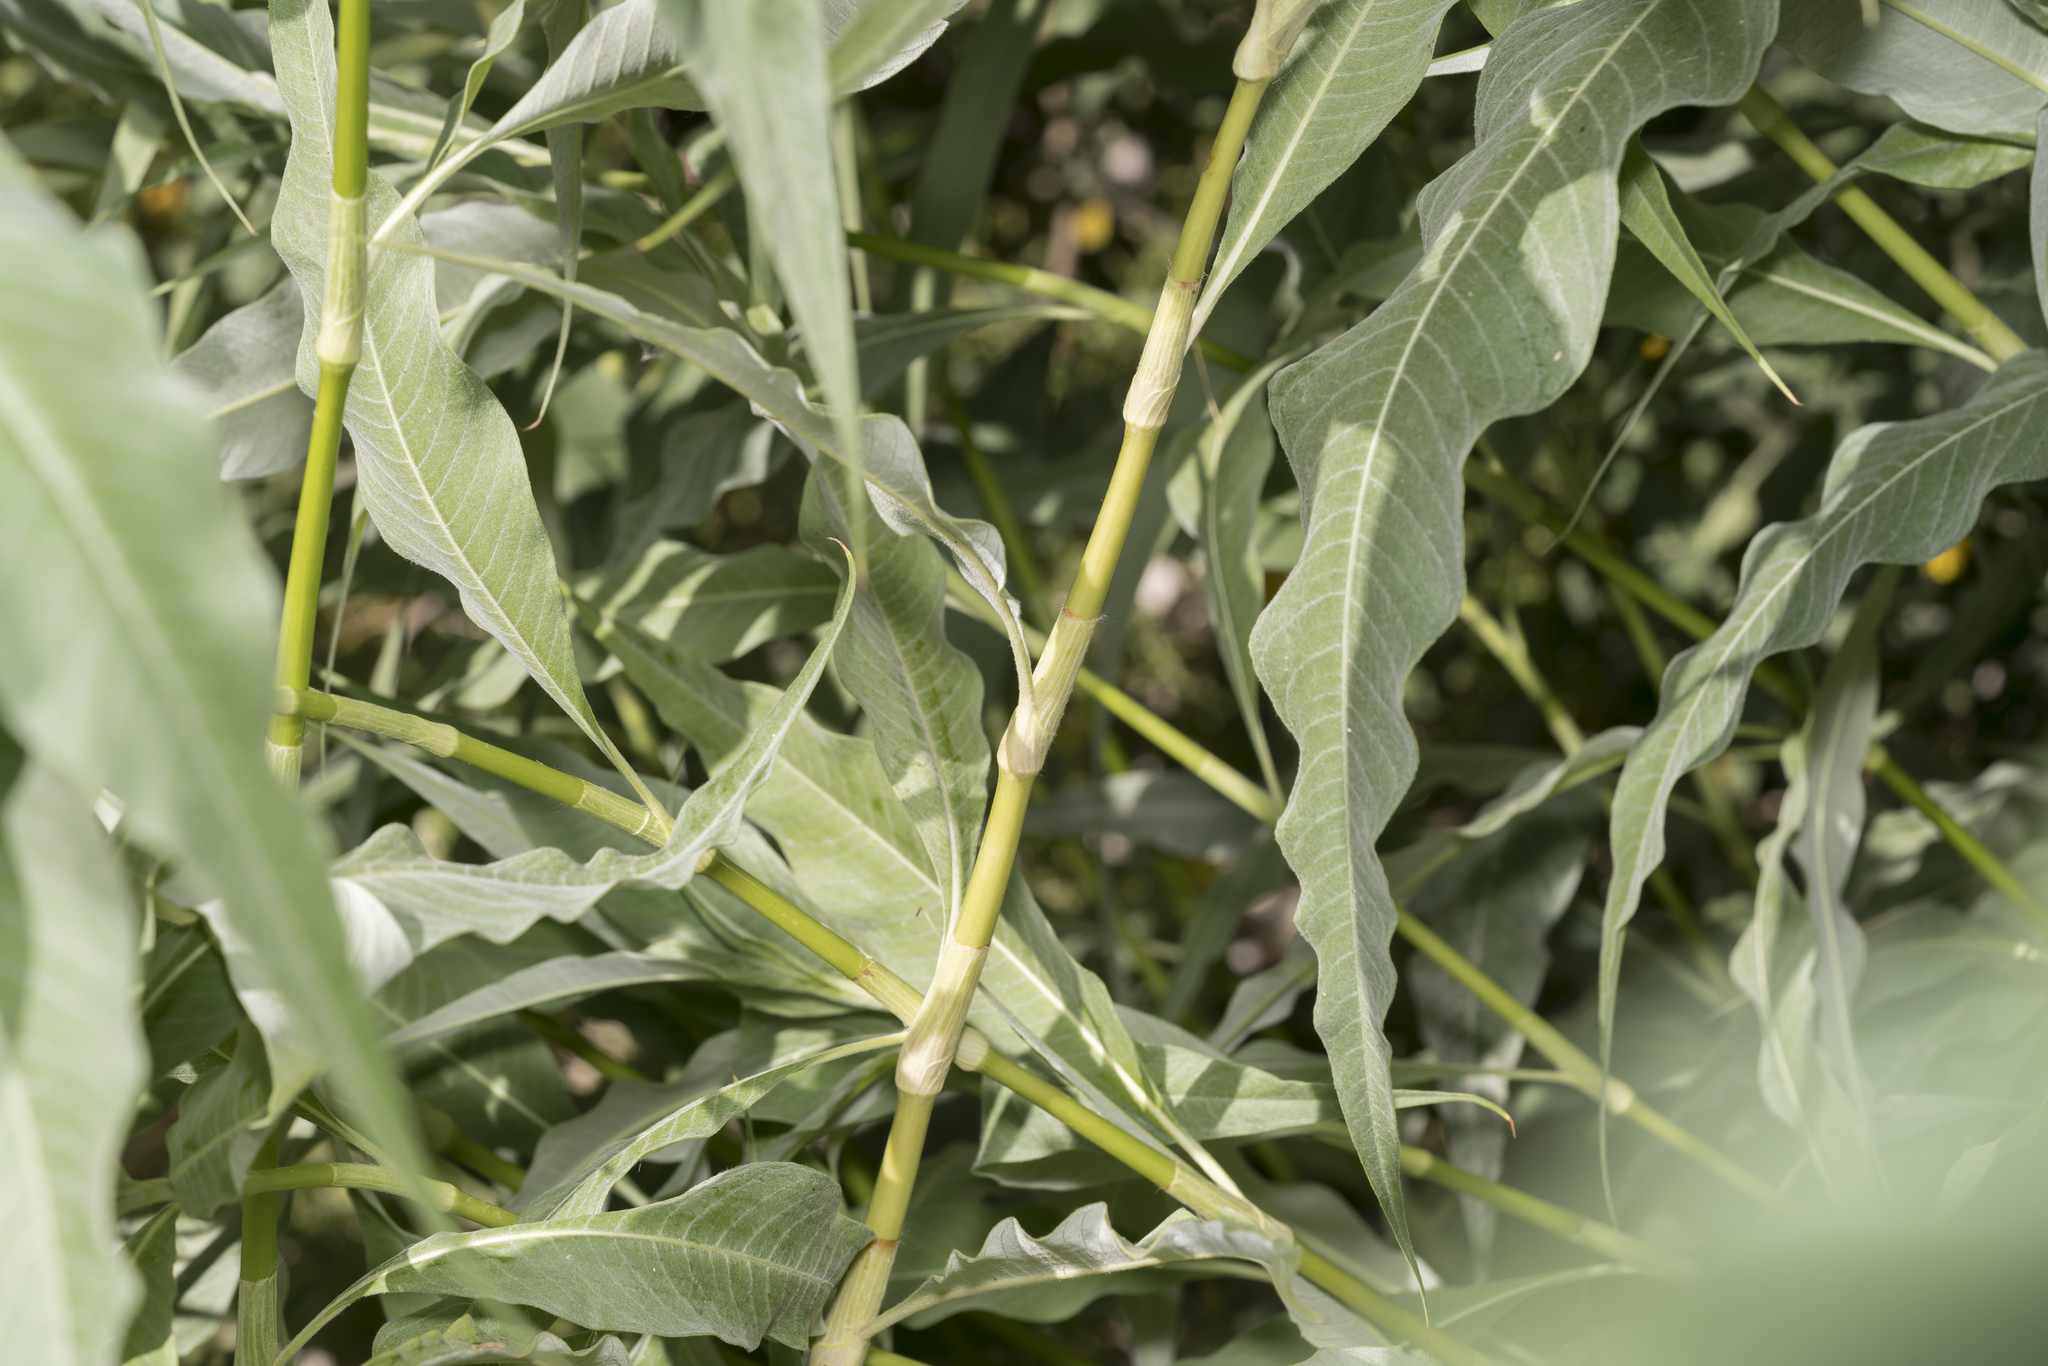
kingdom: Plantae
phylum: Tracheophyta
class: Magnoliopsida
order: Caryophyllales
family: Polygonaceae
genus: Persicaria
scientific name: Persicaria senegalensis
